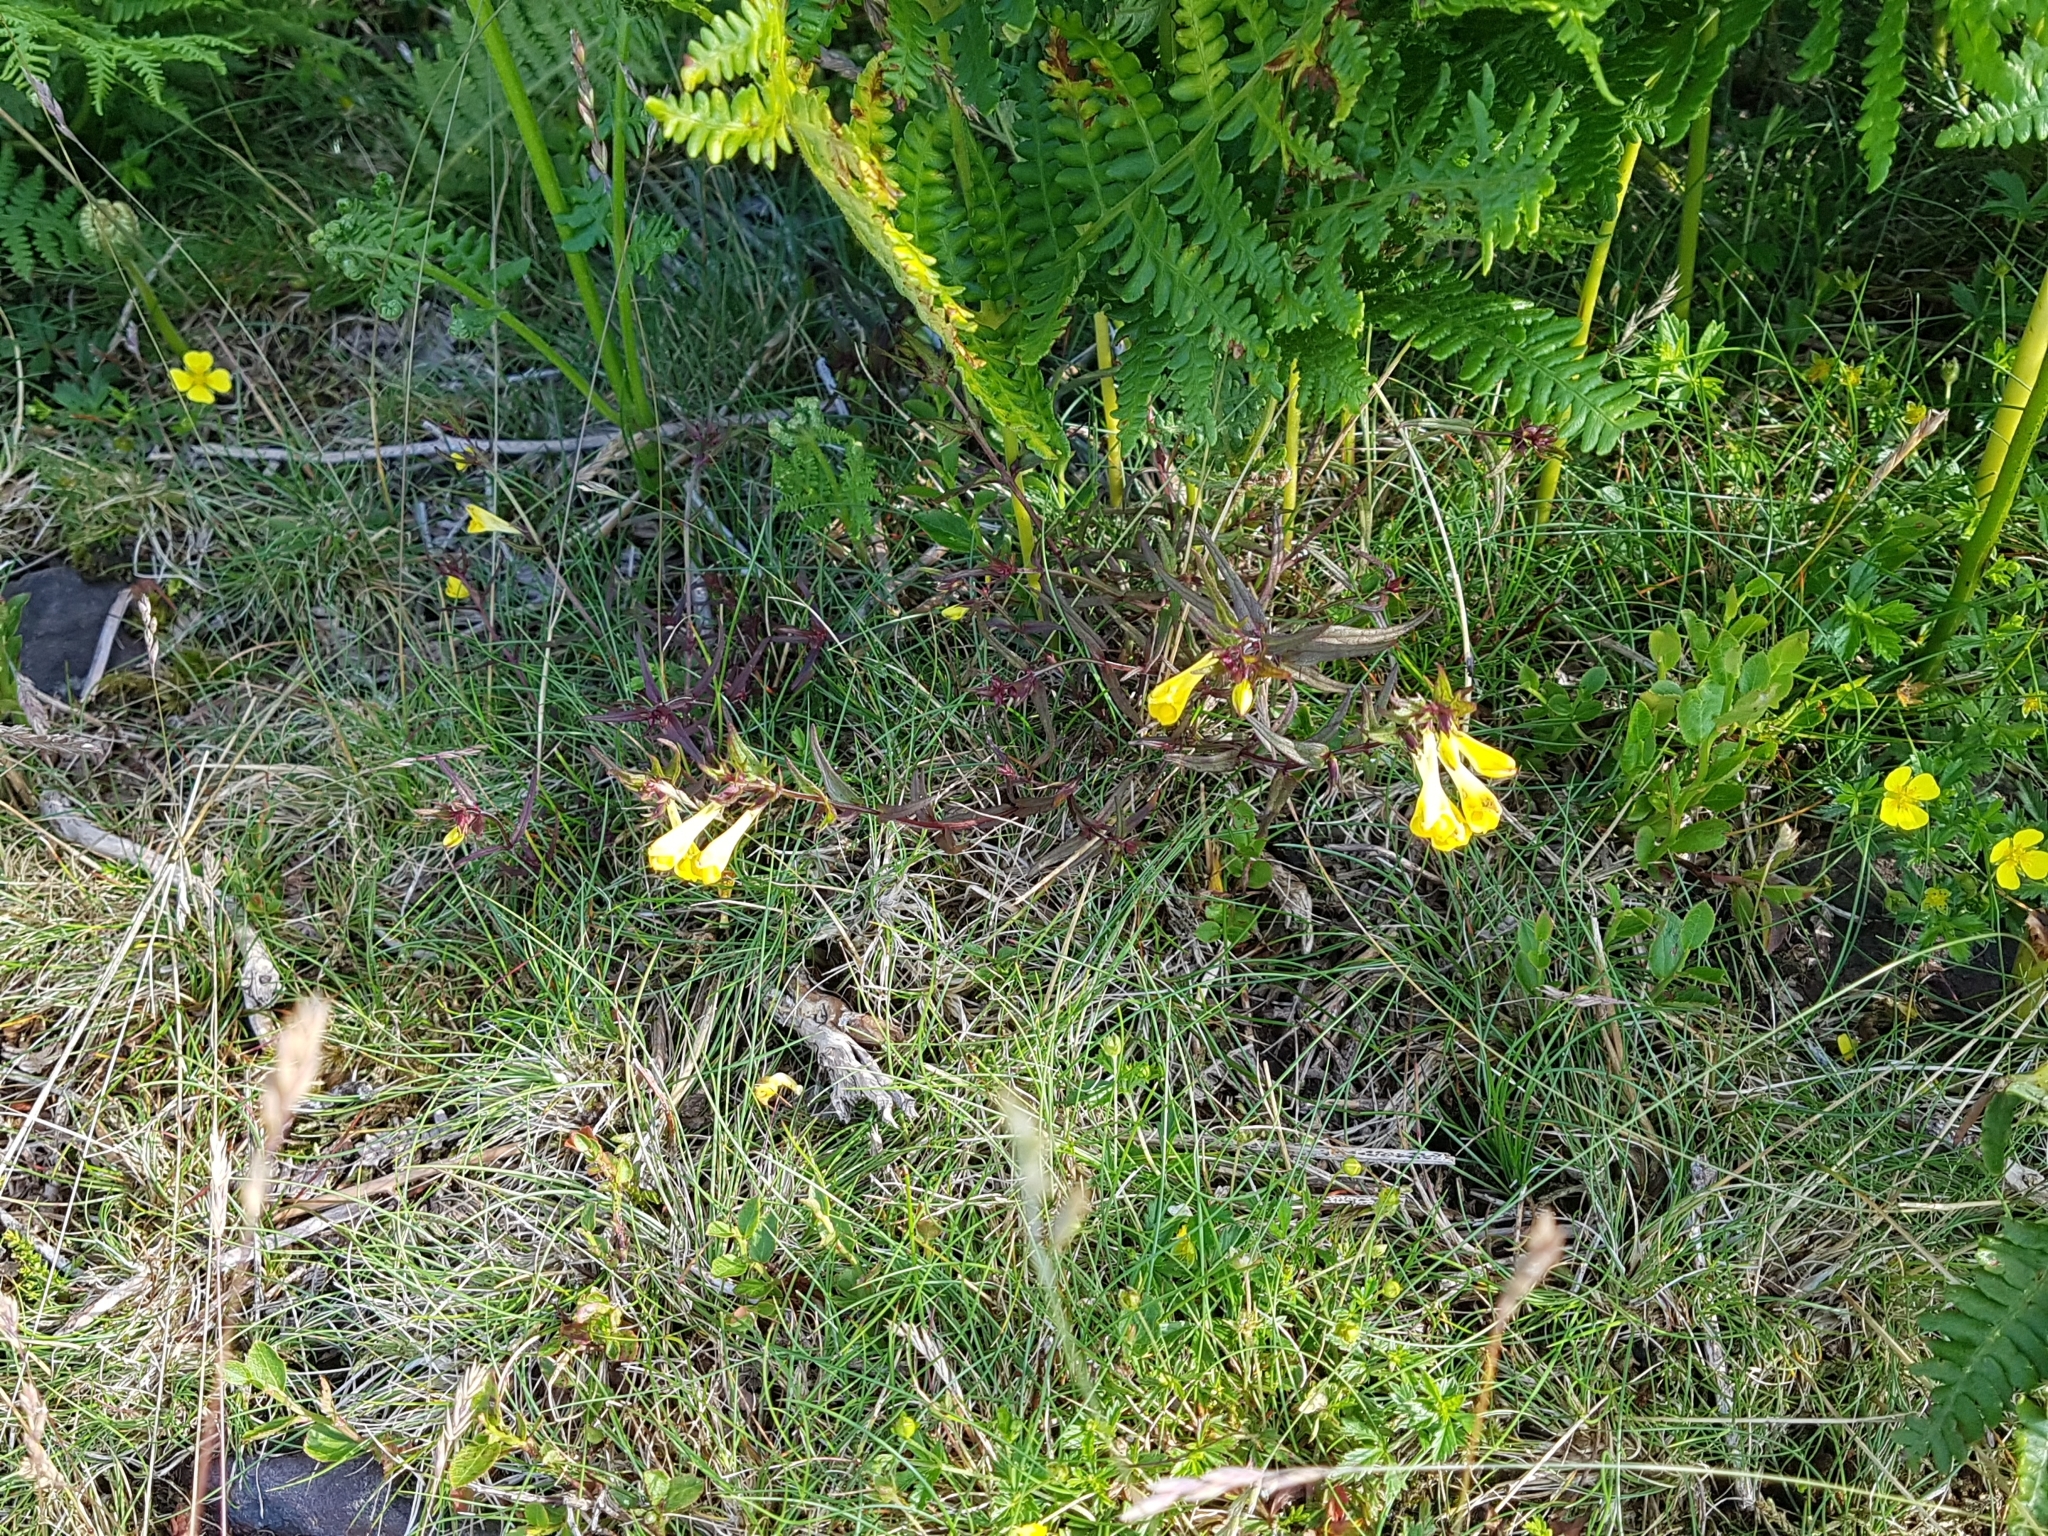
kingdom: Plantae
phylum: Tracheophyta
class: Magnoliopsida
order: Lamiales
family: Orobanchaceae
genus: Melampyrum
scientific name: Melampyrum pratense
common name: Common cow-wheat
